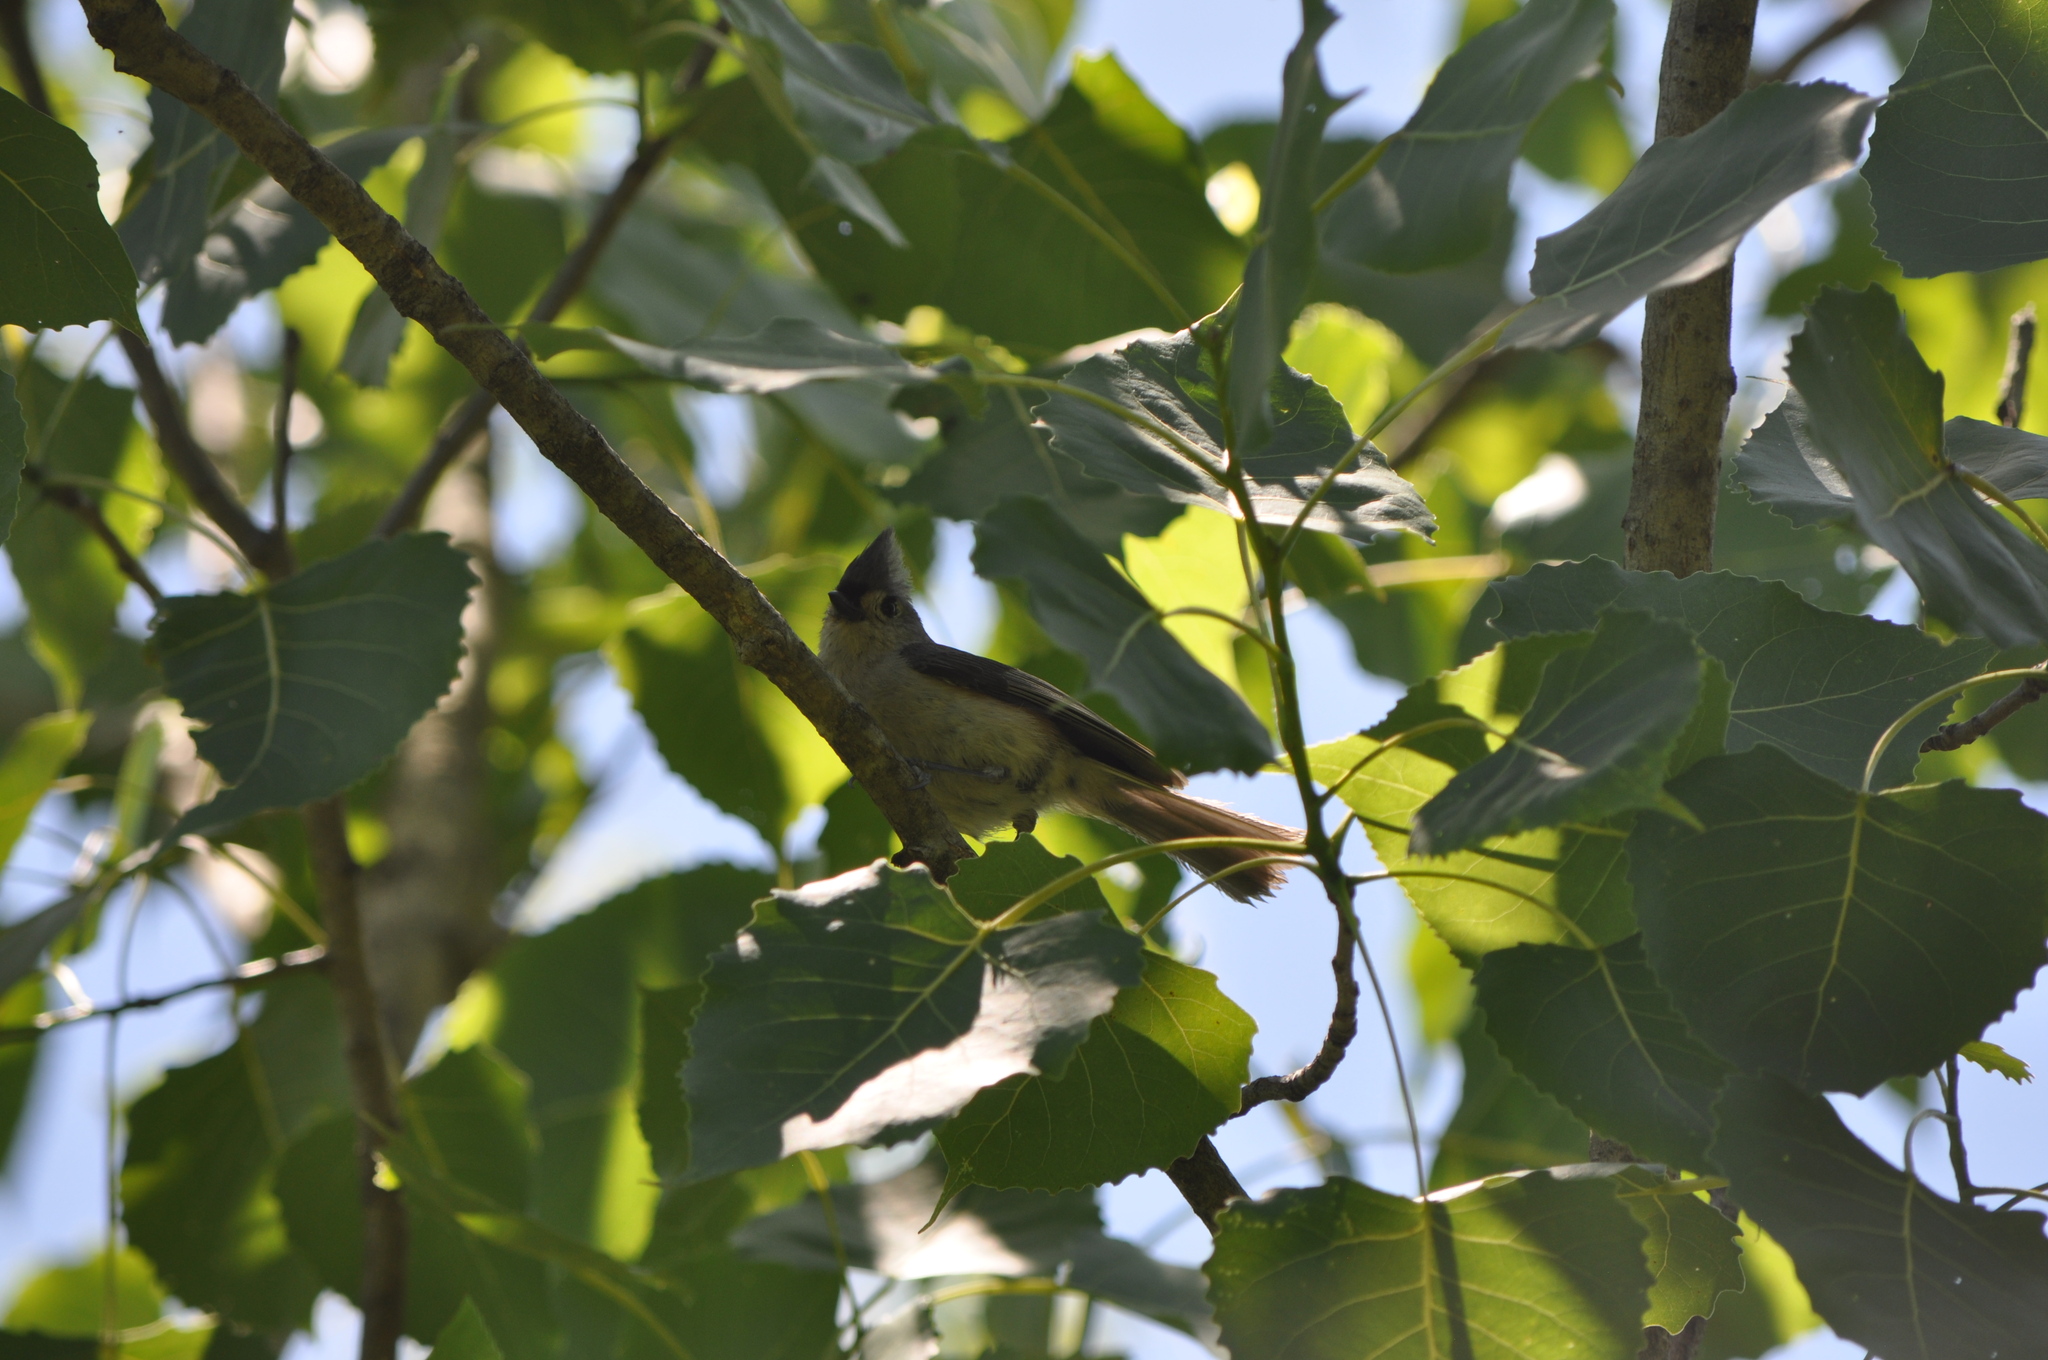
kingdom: Animalia
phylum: Chordata
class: Aves
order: Passeriformes
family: Paridae
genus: Baeolophus
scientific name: Baeolophus bicolor
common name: Tufted titmouse
